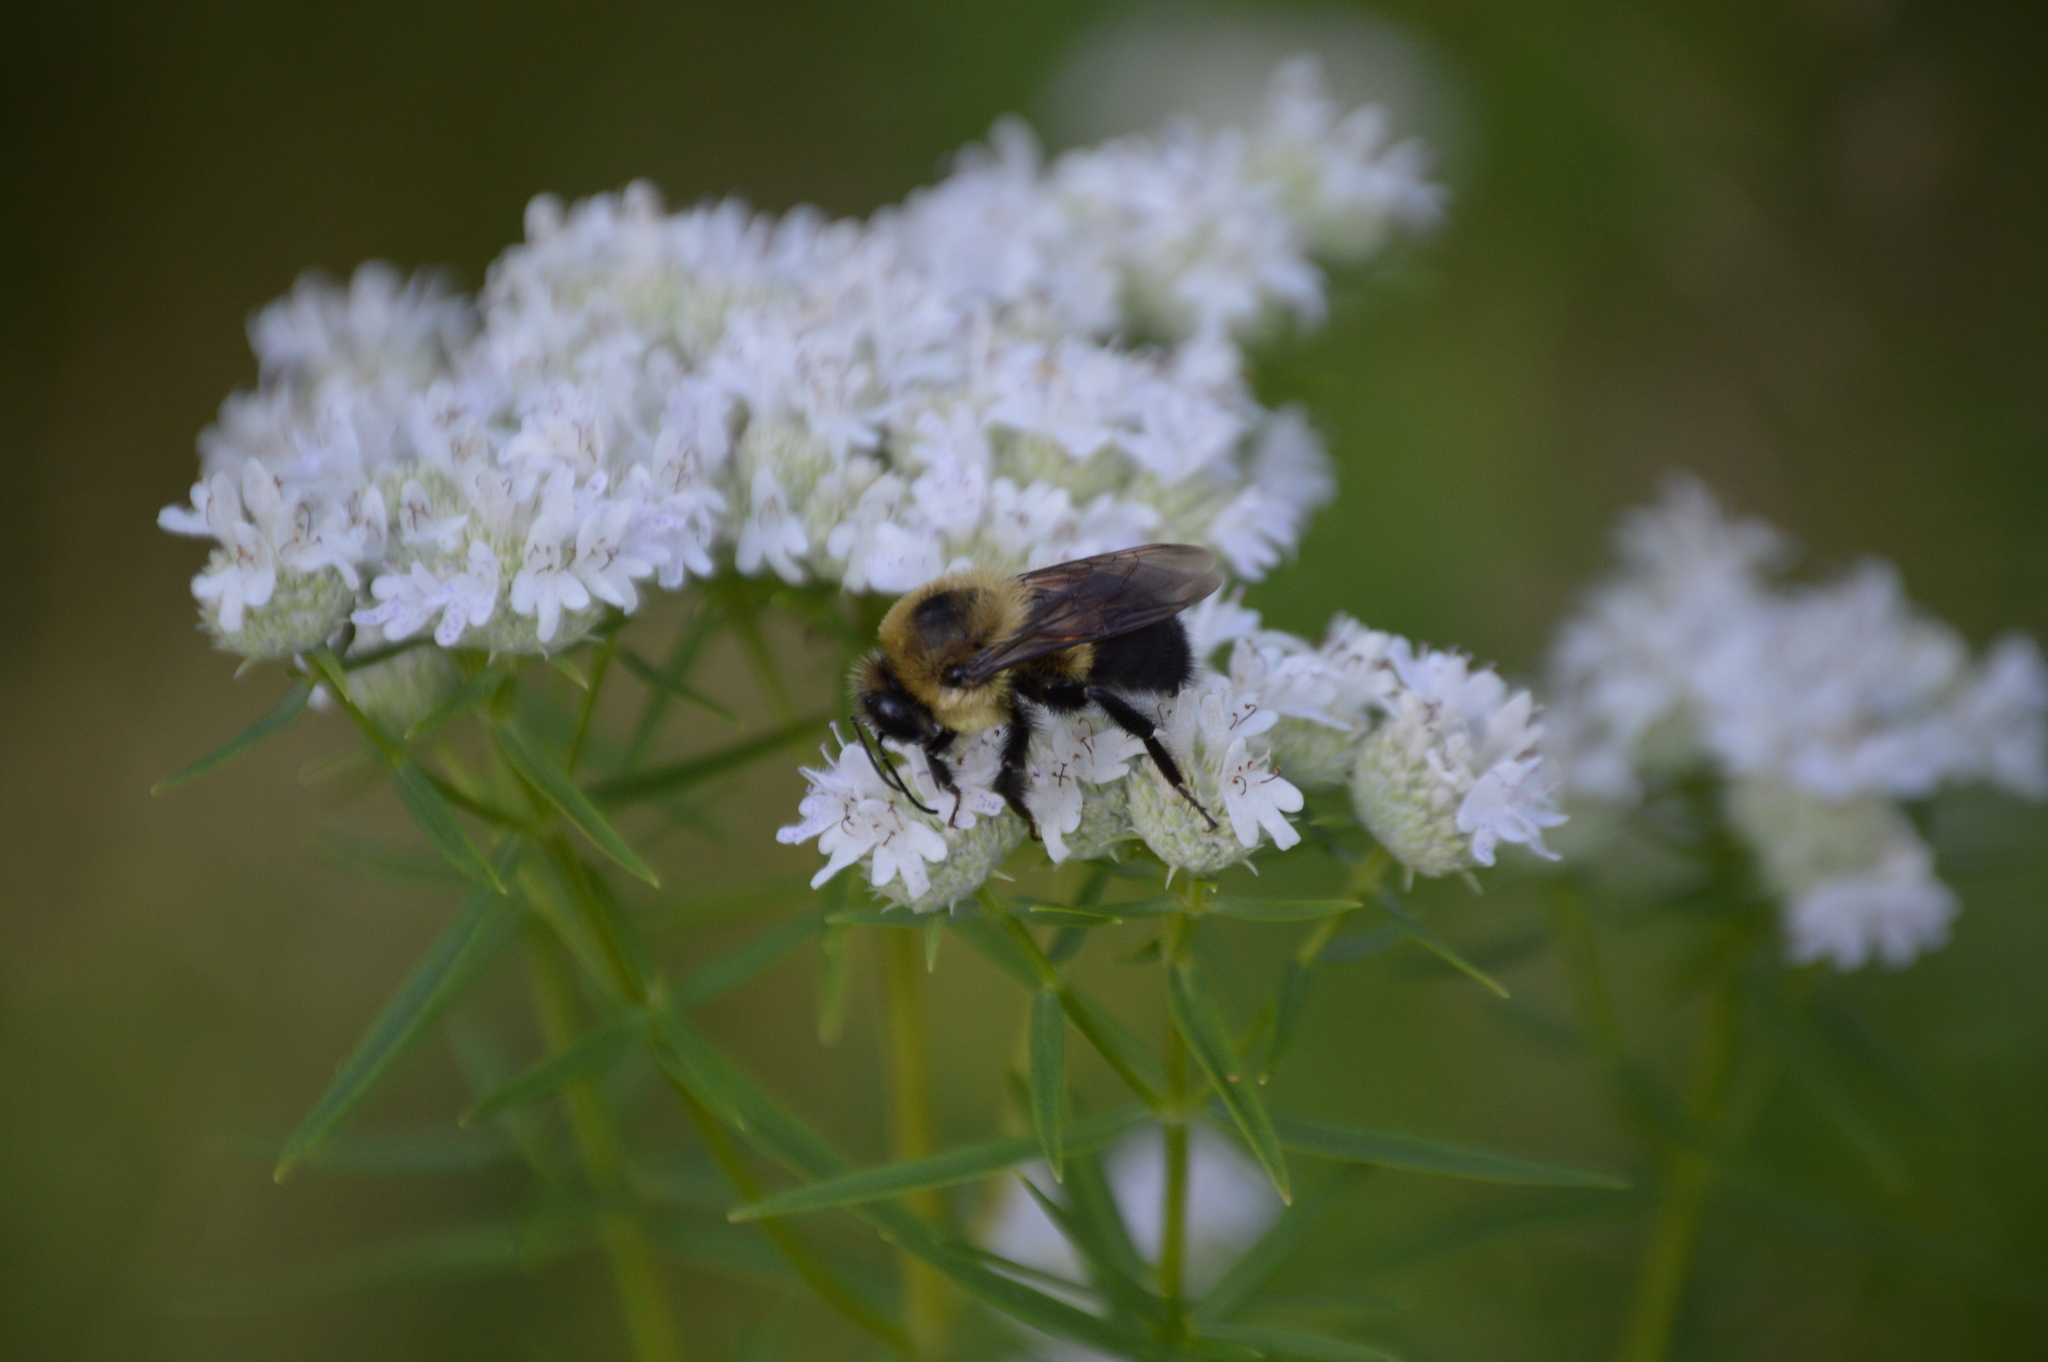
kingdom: Animalia
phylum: Arthropoda
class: Insecta
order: Hymenoptera
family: Apidae
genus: Bombus
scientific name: Bombus griseocollis
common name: Brown-belted bumble bee
